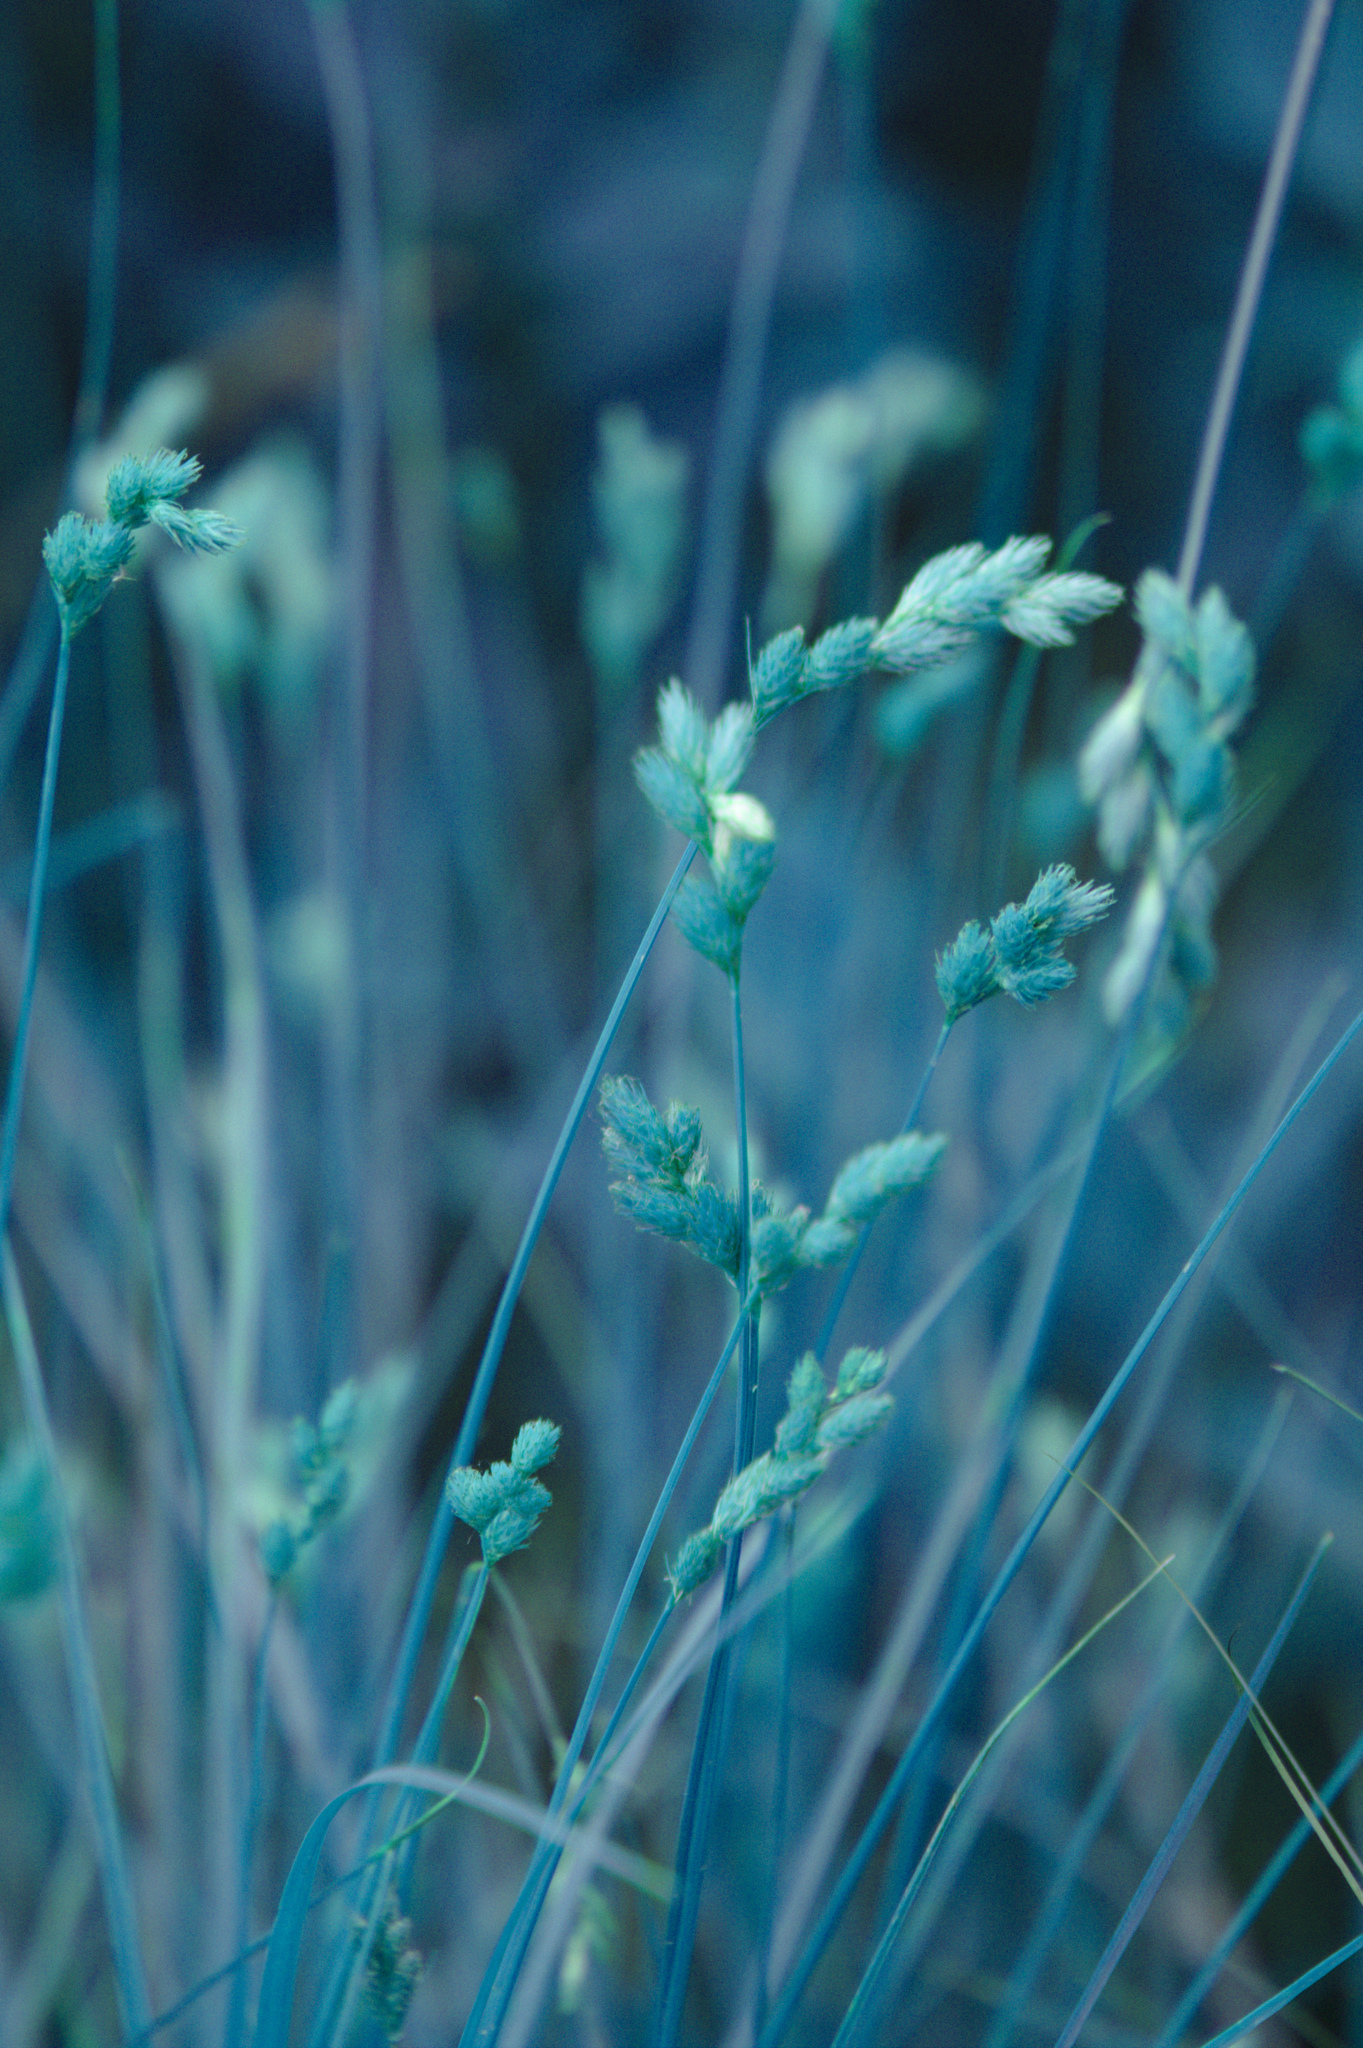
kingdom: Plantae
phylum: Tracheophyta
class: Liliopsida
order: Poales
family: Cyperaceae
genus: Carex
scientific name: Carex scoparia
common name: Broom sedge
